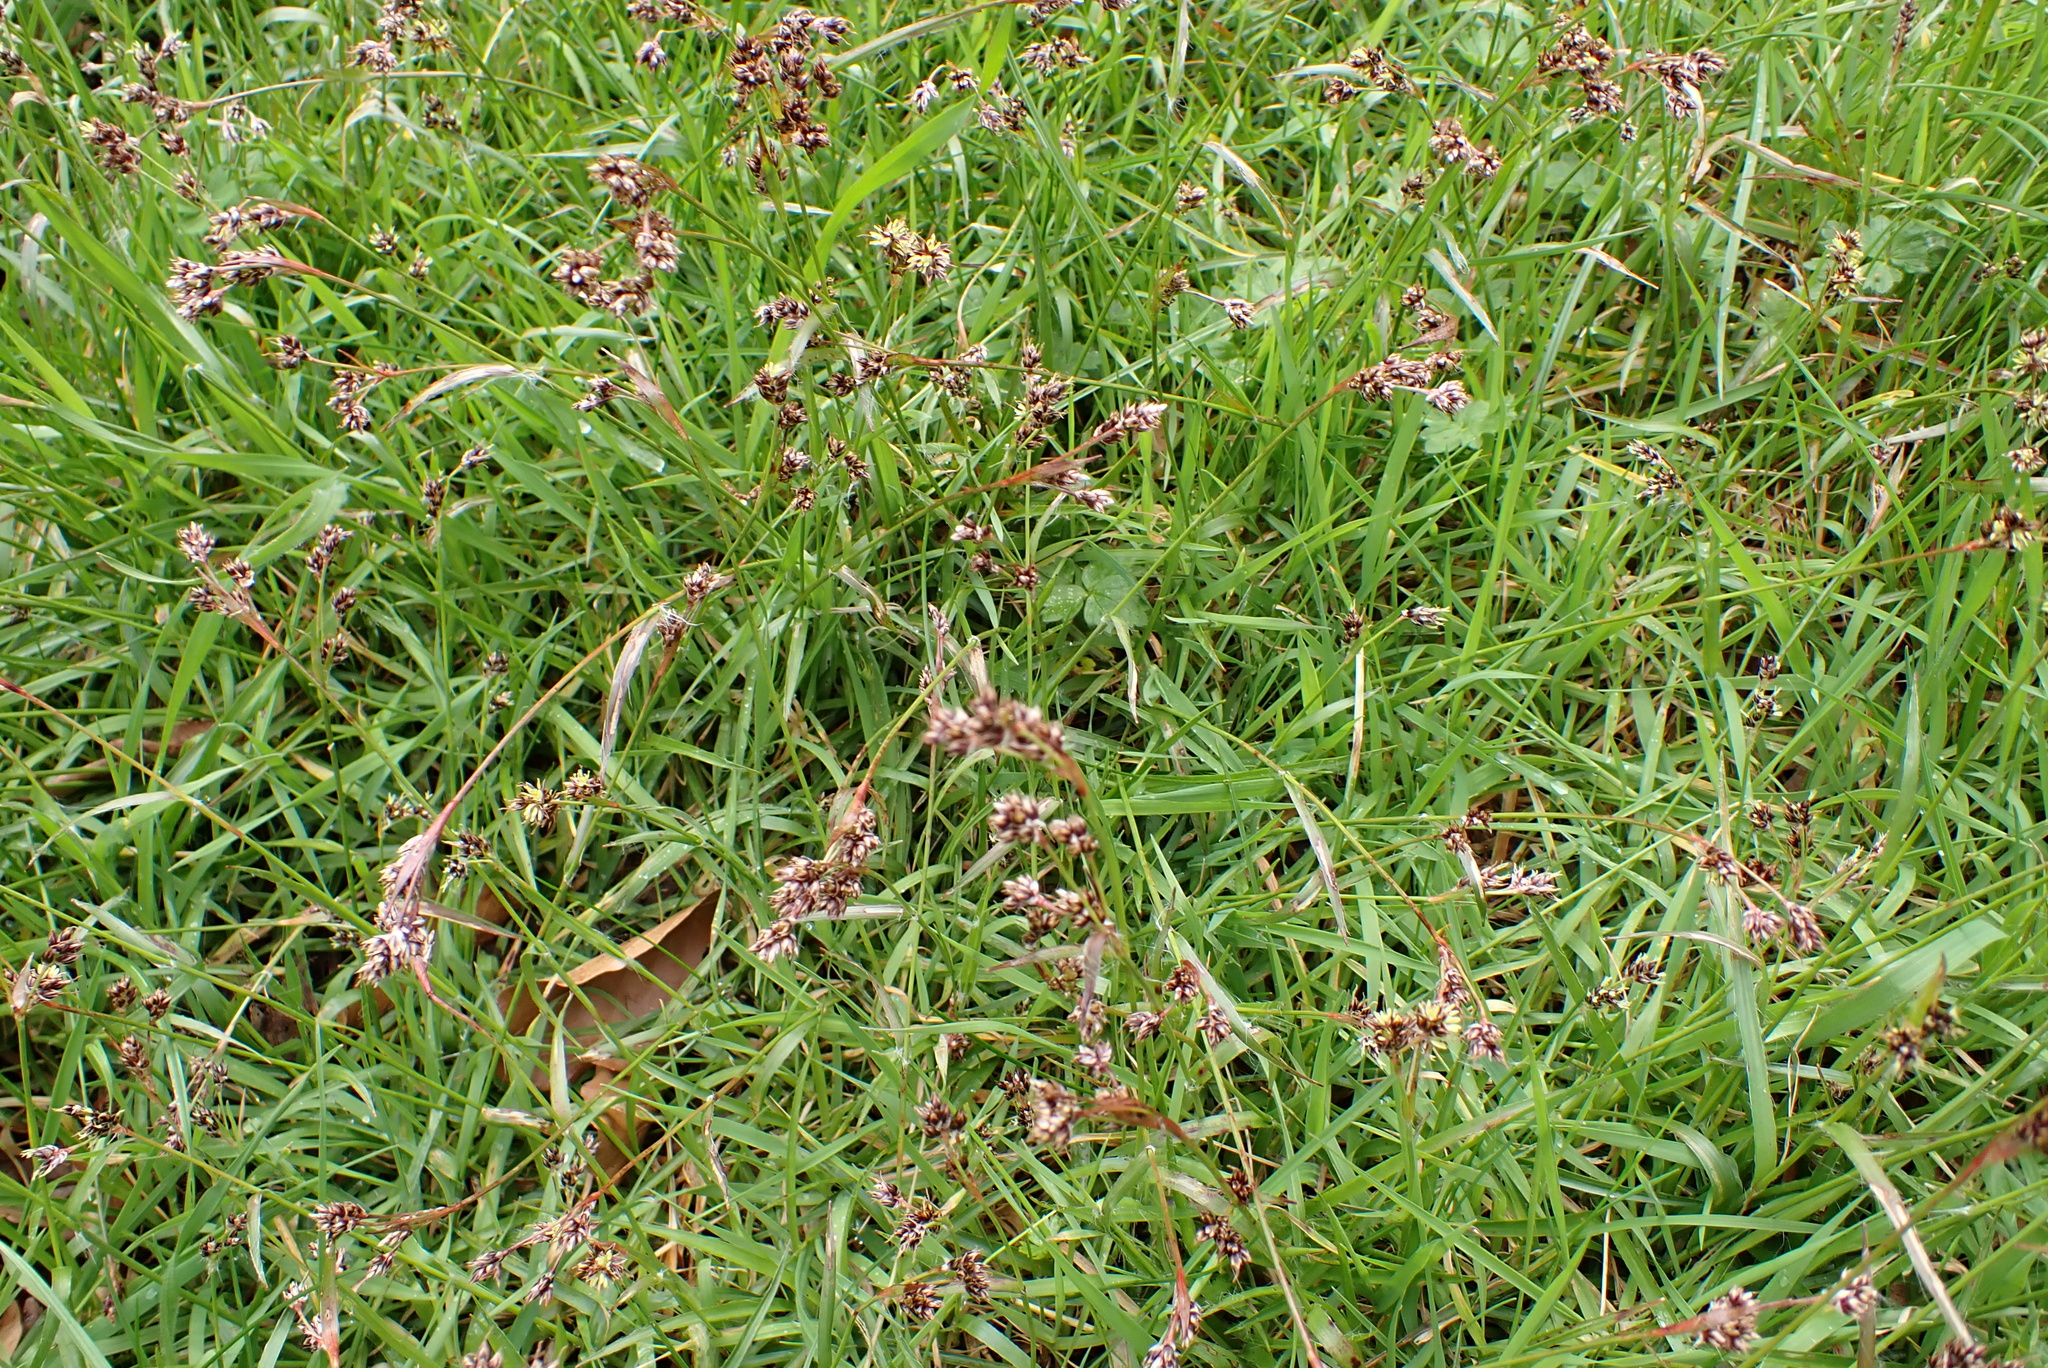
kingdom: Plantae
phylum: Tracheophyta
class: Liliopsida
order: Poales
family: Juncaceae
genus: Luzula
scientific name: Luzula campestris
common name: Field wood-rush
